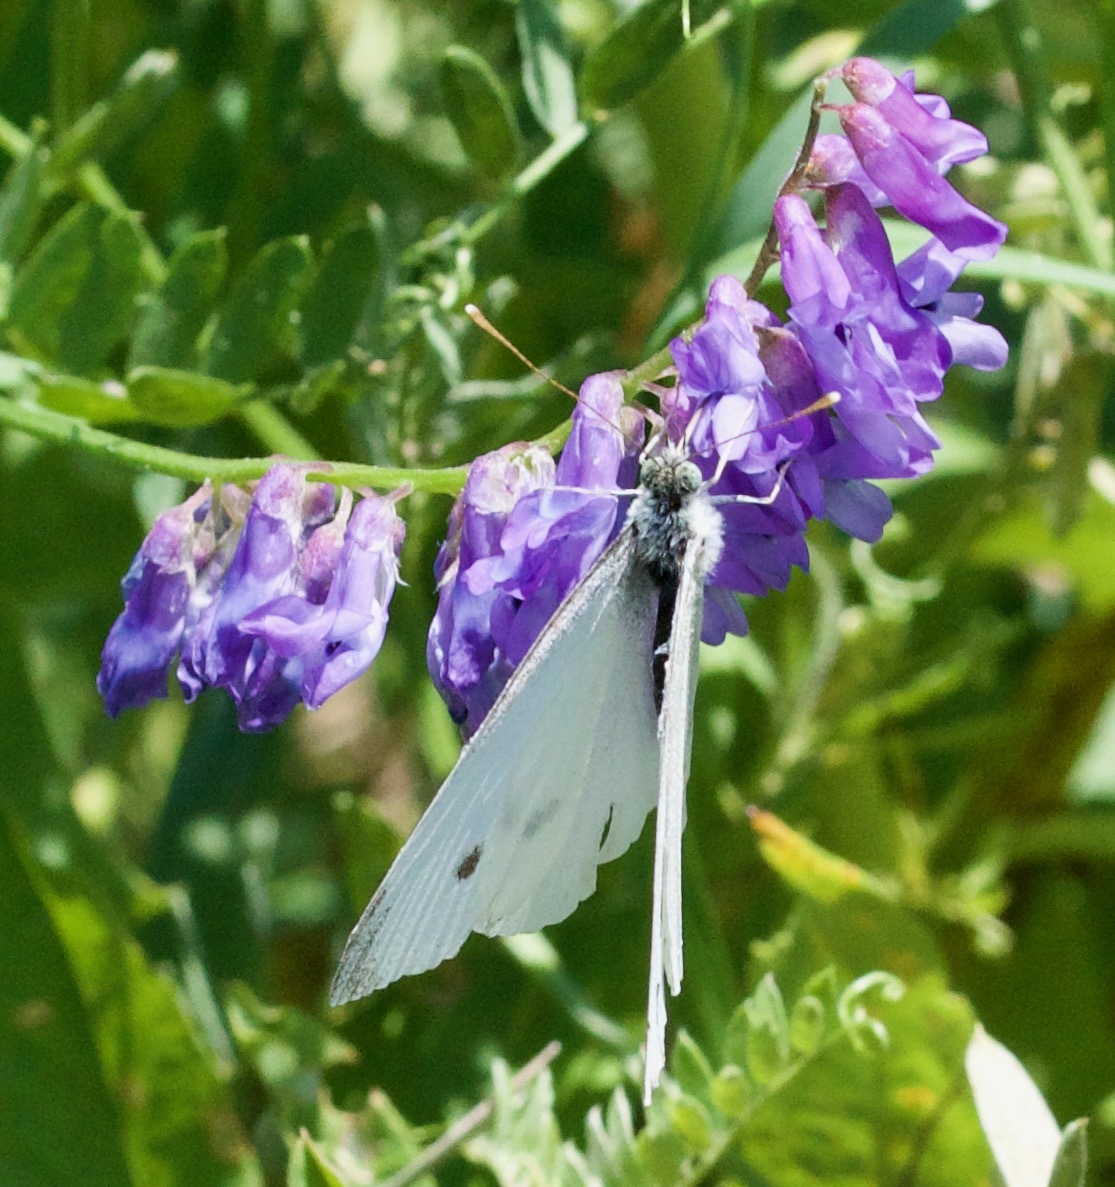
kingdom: Animalia
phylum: Arthropoda
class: Insecta
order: Lepidoptera
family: Pieridae
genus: Pieris
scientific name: Pieris rapae
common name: Small white
